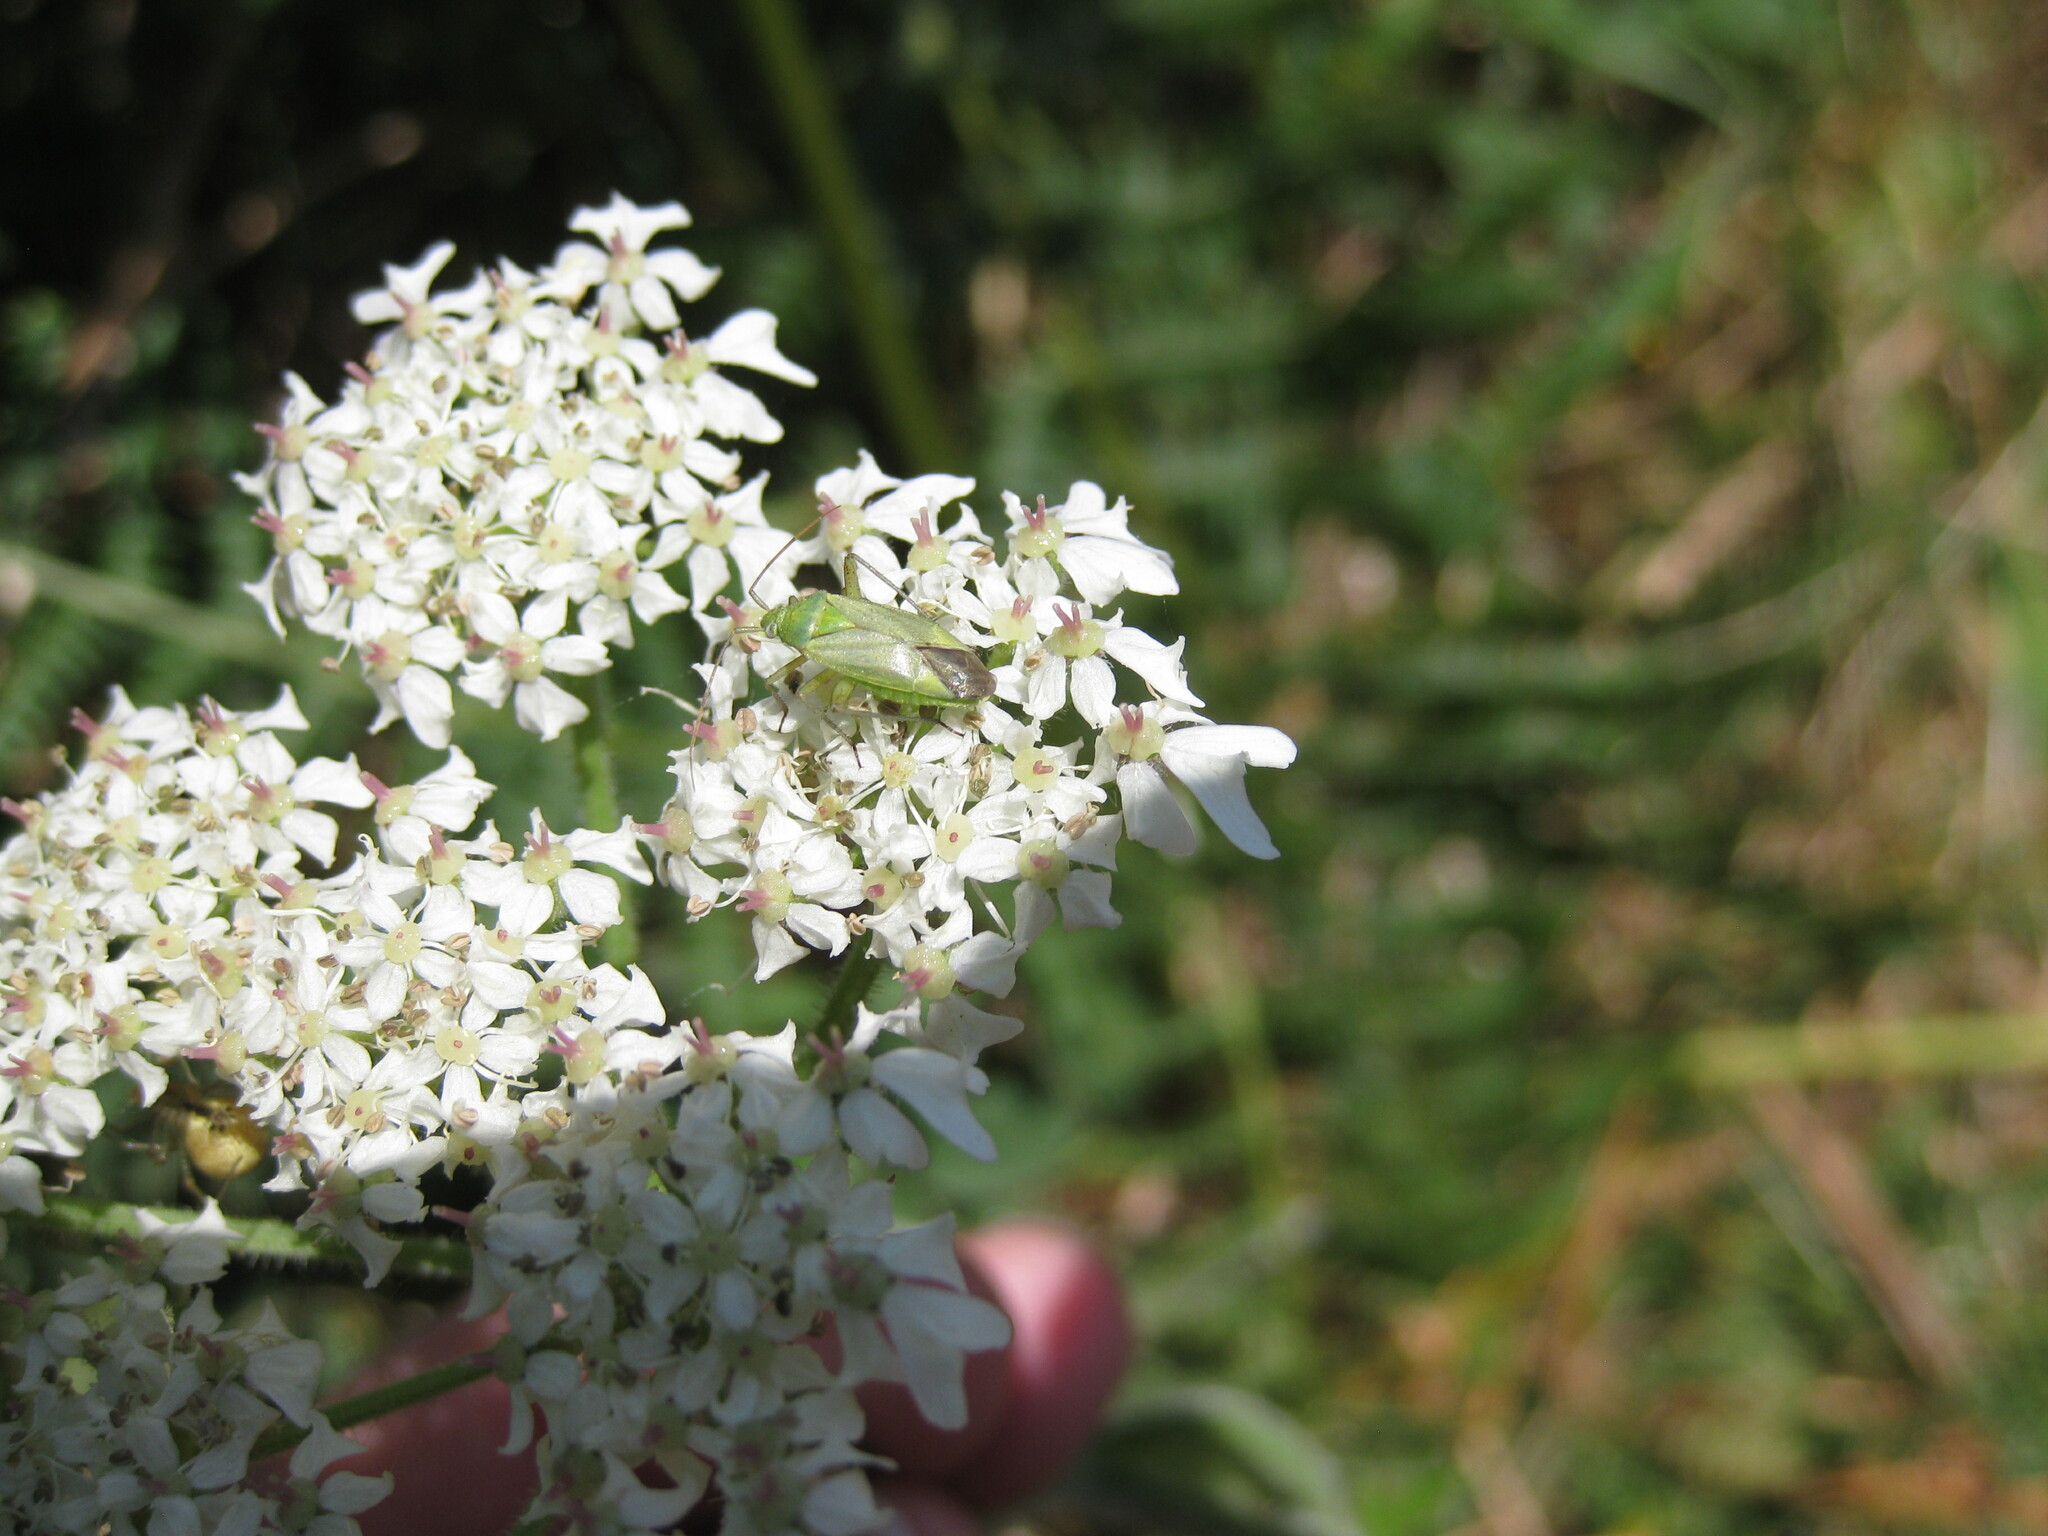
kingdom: Animalia
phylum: Arthropoda
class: Insecta
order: Hemiptera
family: Miridae
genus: Closterotomus
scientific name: Closterotomus norvegicus
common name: Plant bug
